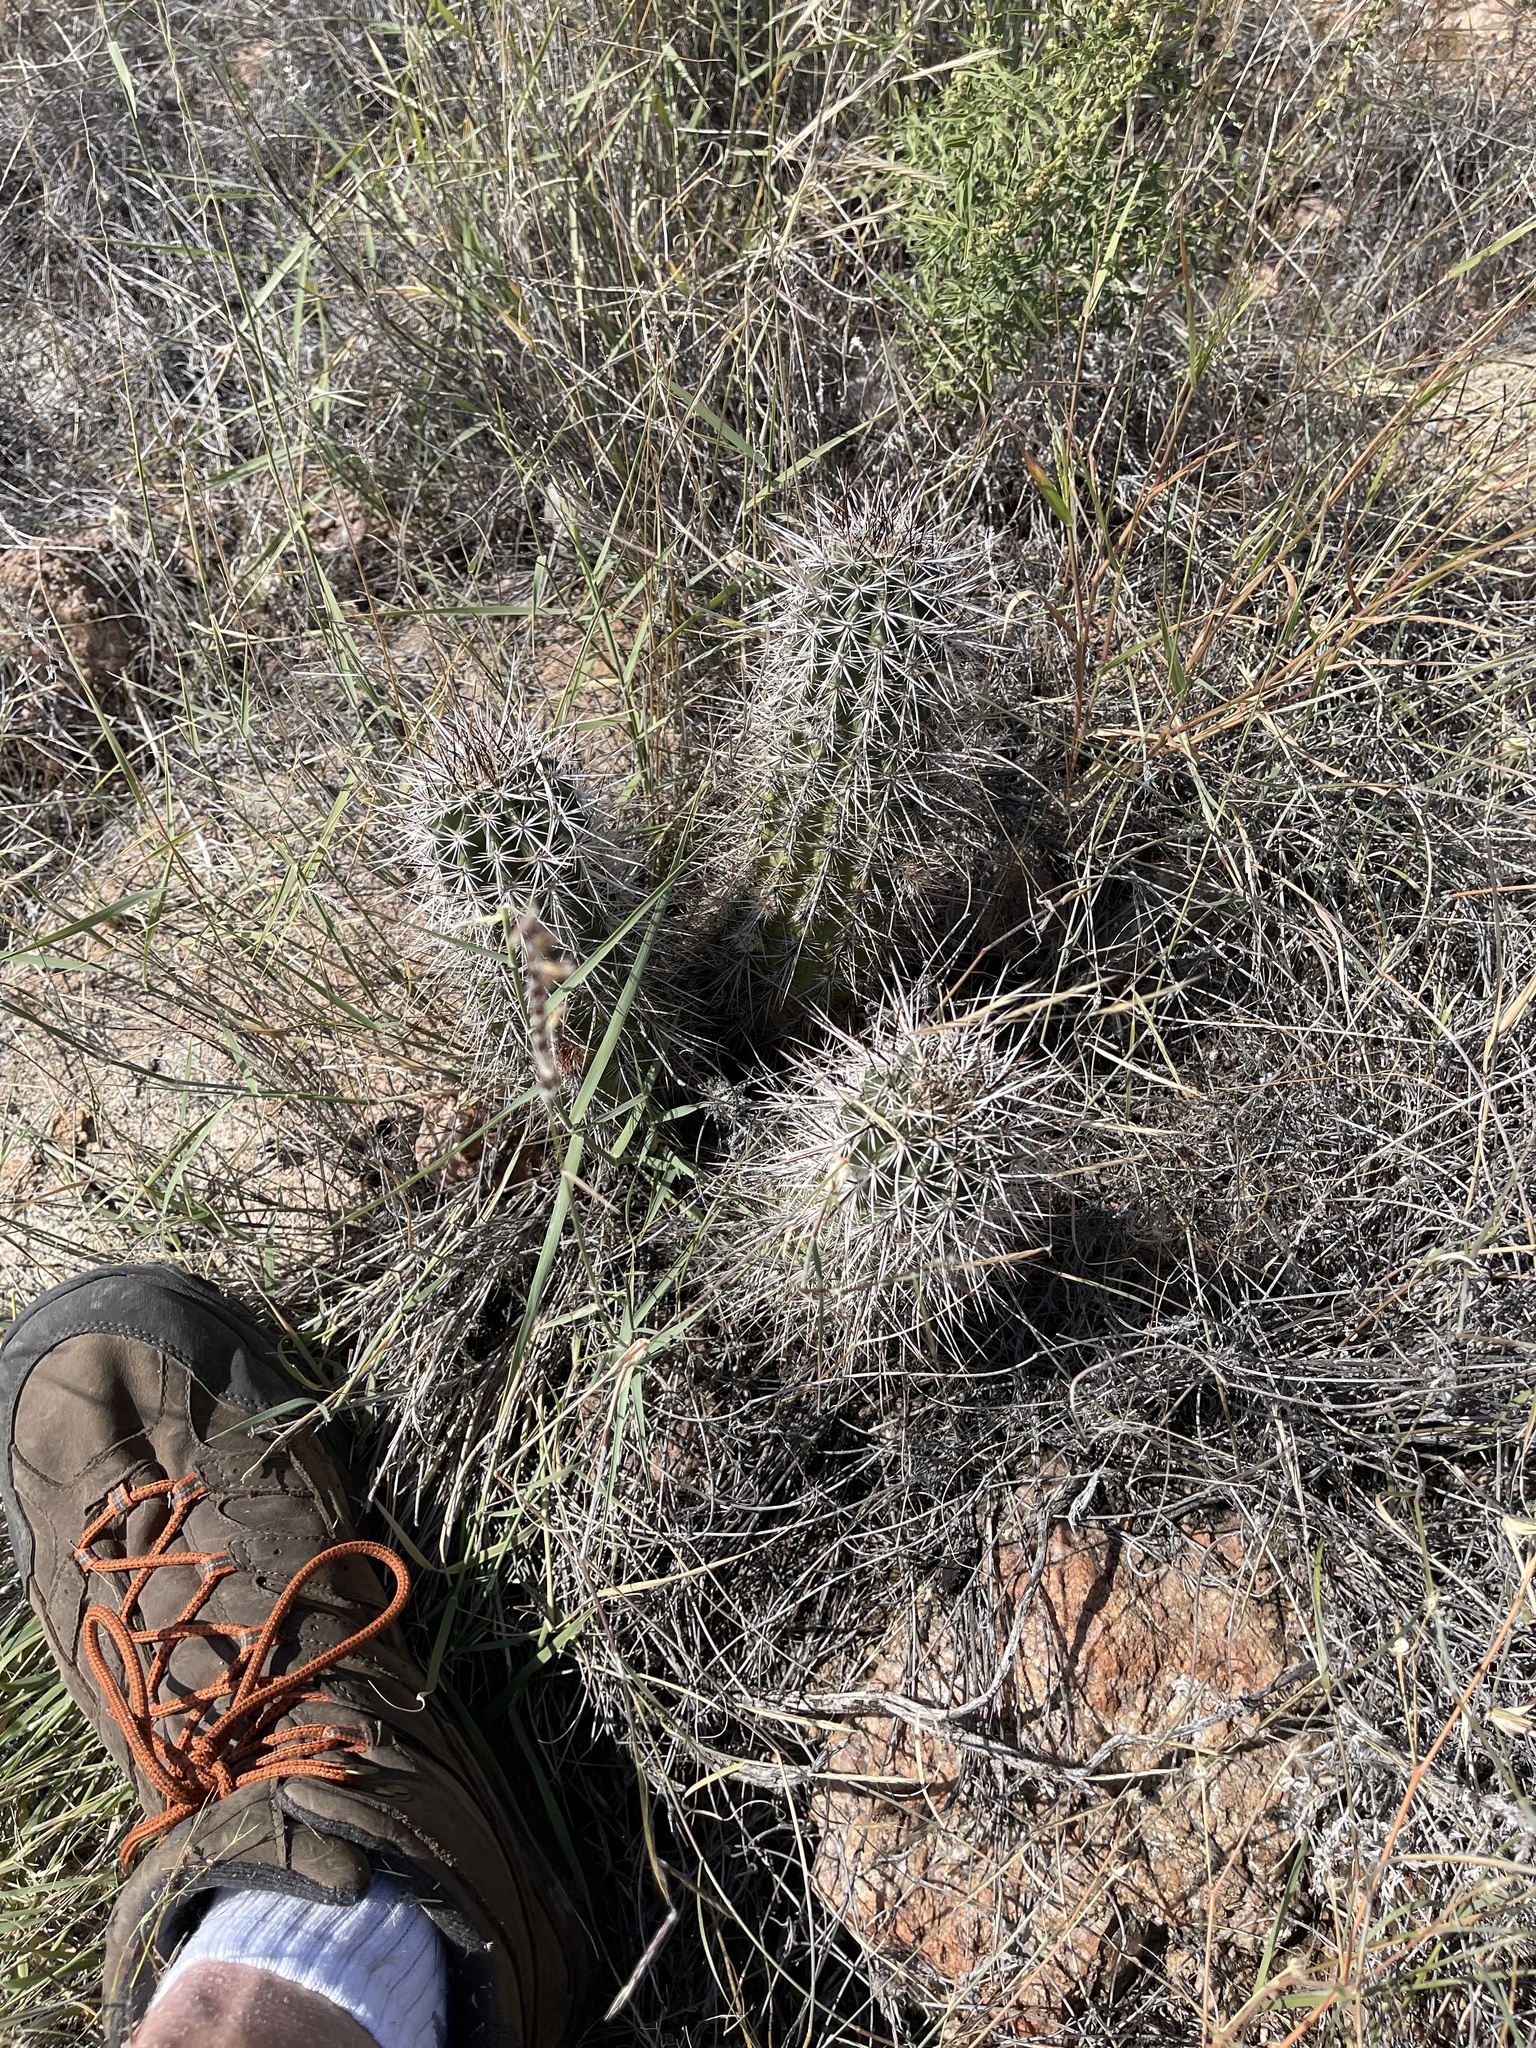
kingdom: Plantae
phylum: Tracheophyta
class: Magnoliopsida
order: Caryophyllales
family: Cactaceae
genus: Echinocereus
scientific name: Echinocereus engelmannii
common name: Engelmann's hedgehog cactus
